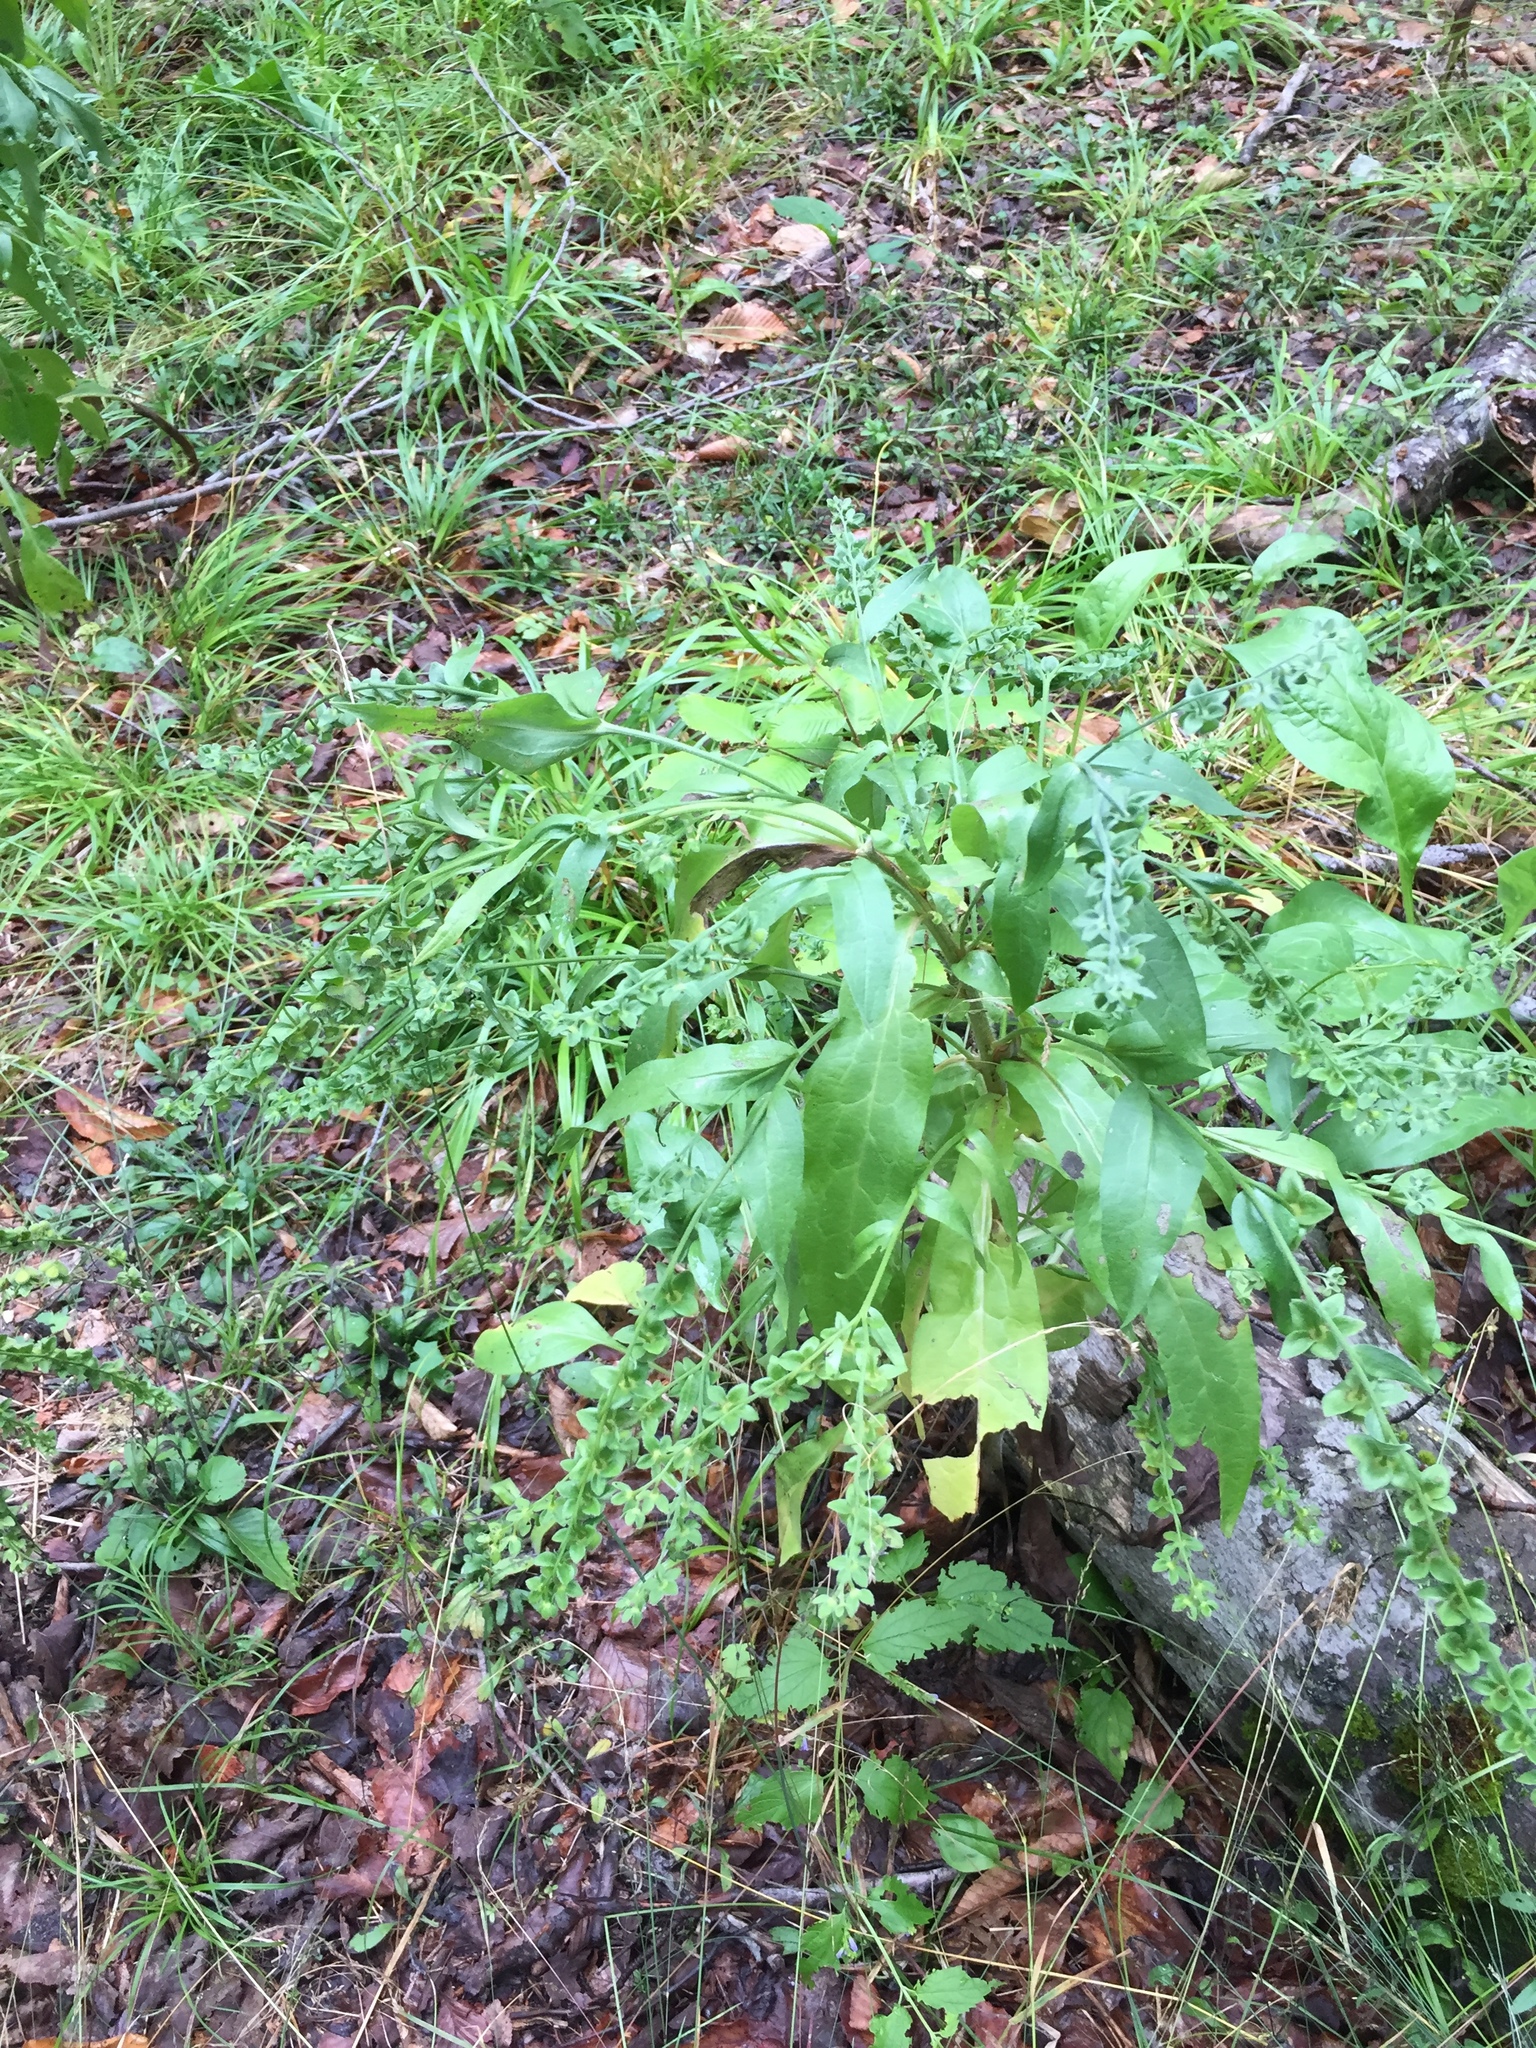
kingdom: Plantae
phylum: Tracheophyta
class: Magnoliopsida
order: Boraginales
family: Boraginaceae
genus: Cynoglossum
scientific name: Cynoglossum officinale
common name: Hound's-tongue
